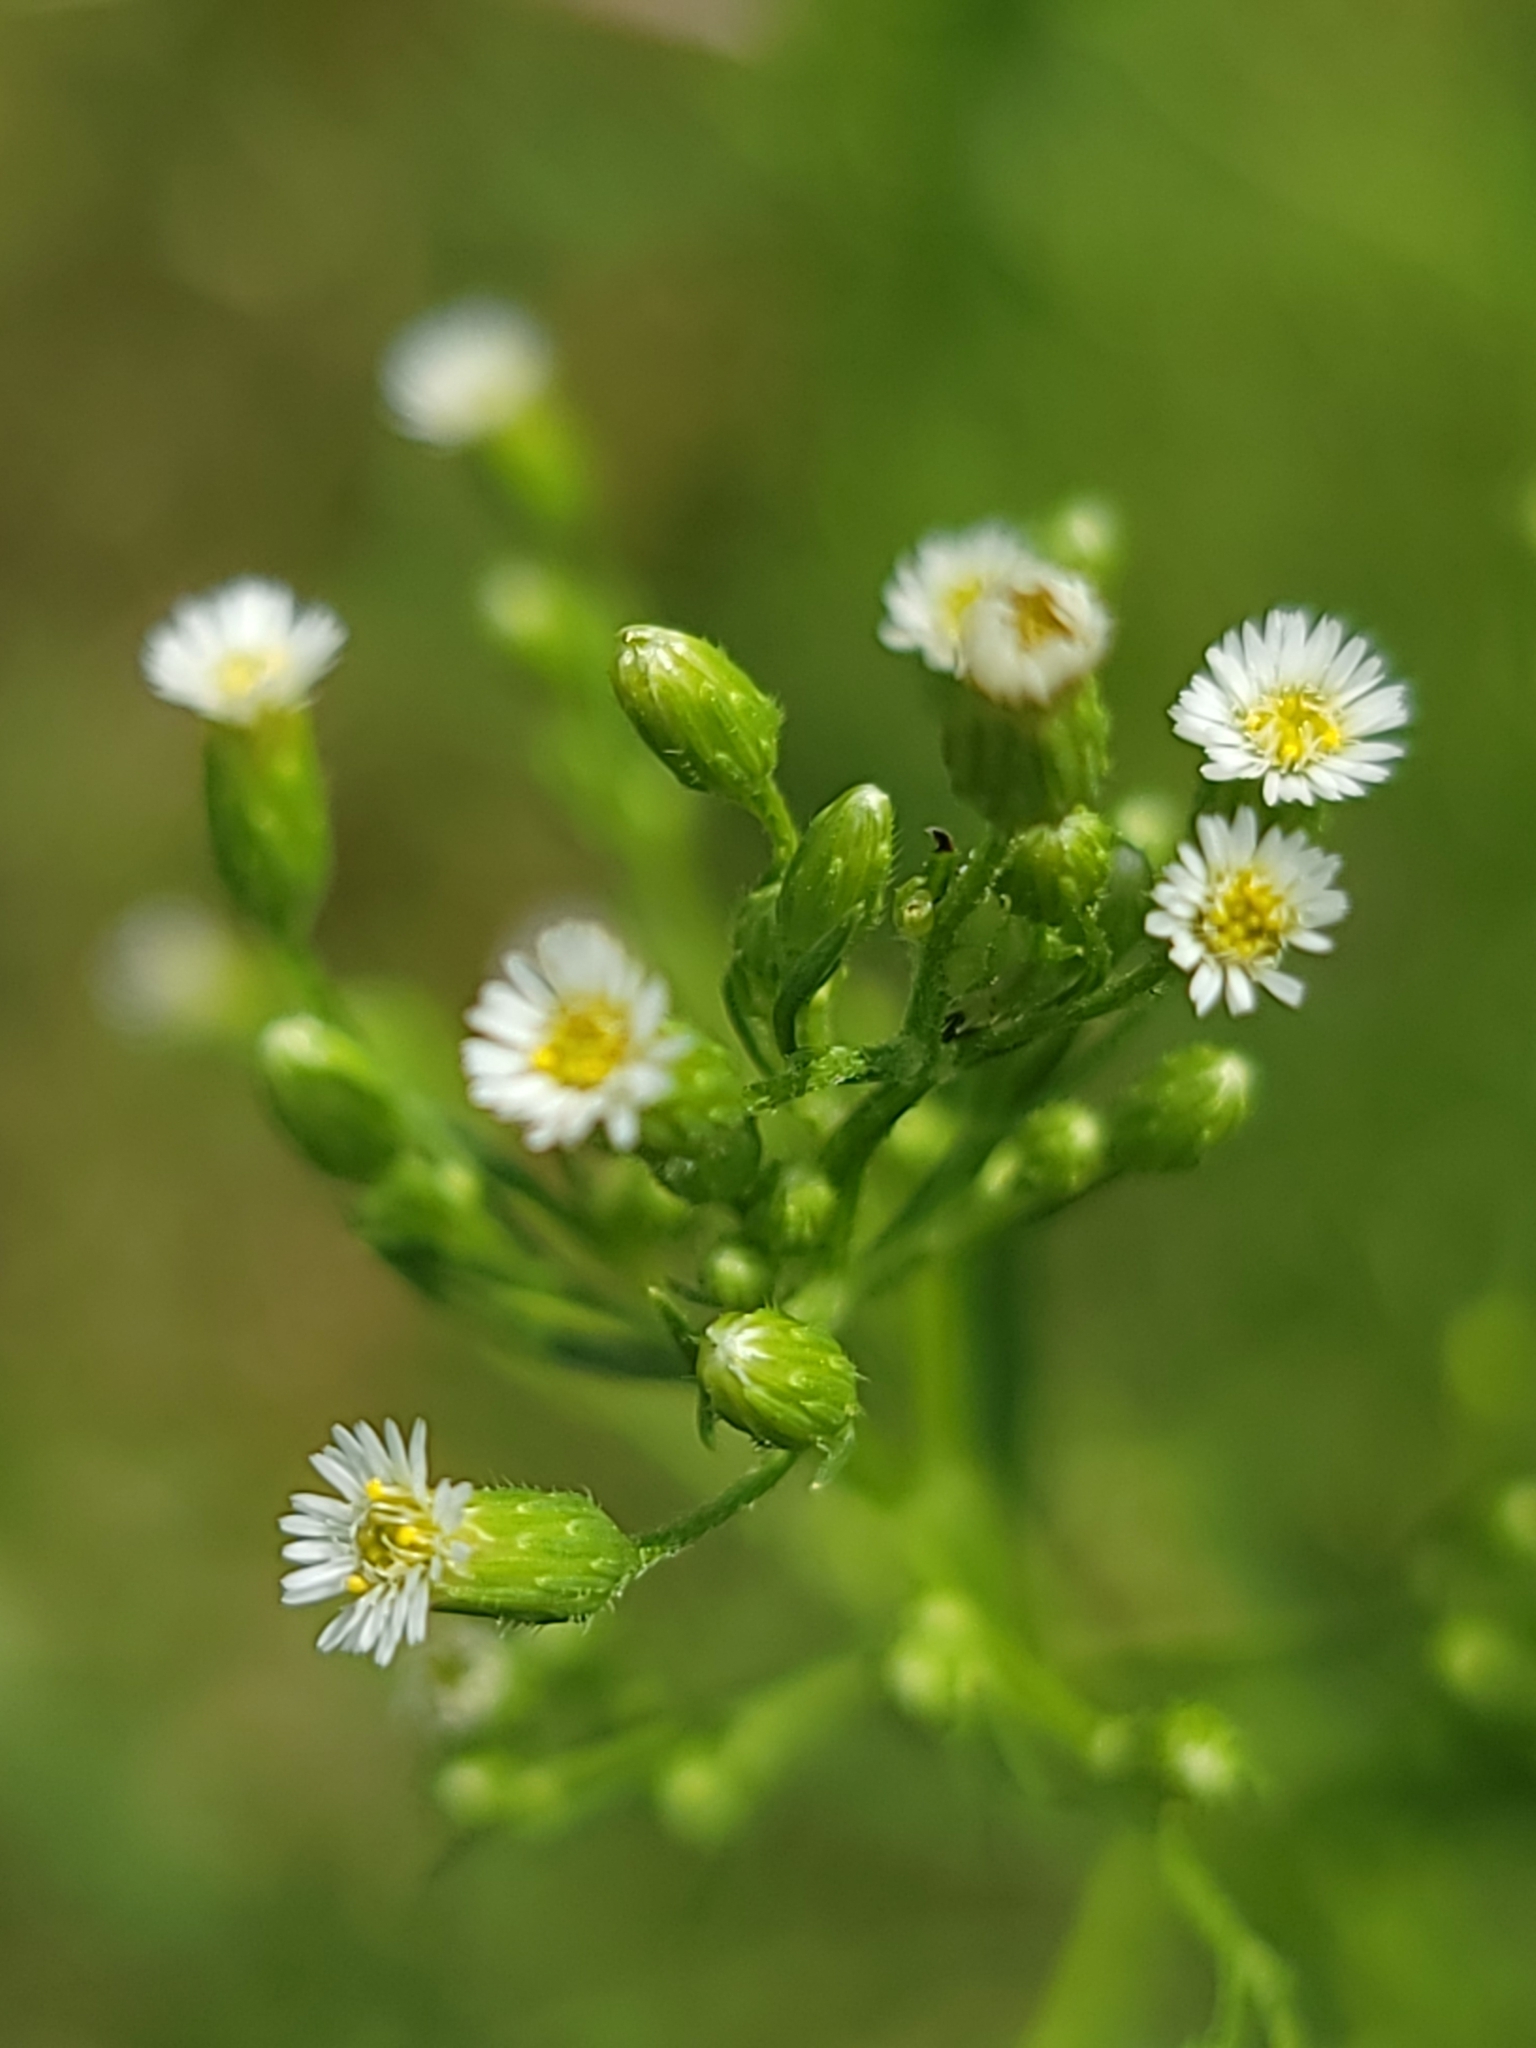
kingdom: Plantae
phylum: Tracheophyta
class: Magnoliopsida
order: Asterales
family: Asteraceae
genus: Erigeron
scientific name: Erigeron canadensis
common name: Canadian fleabane
